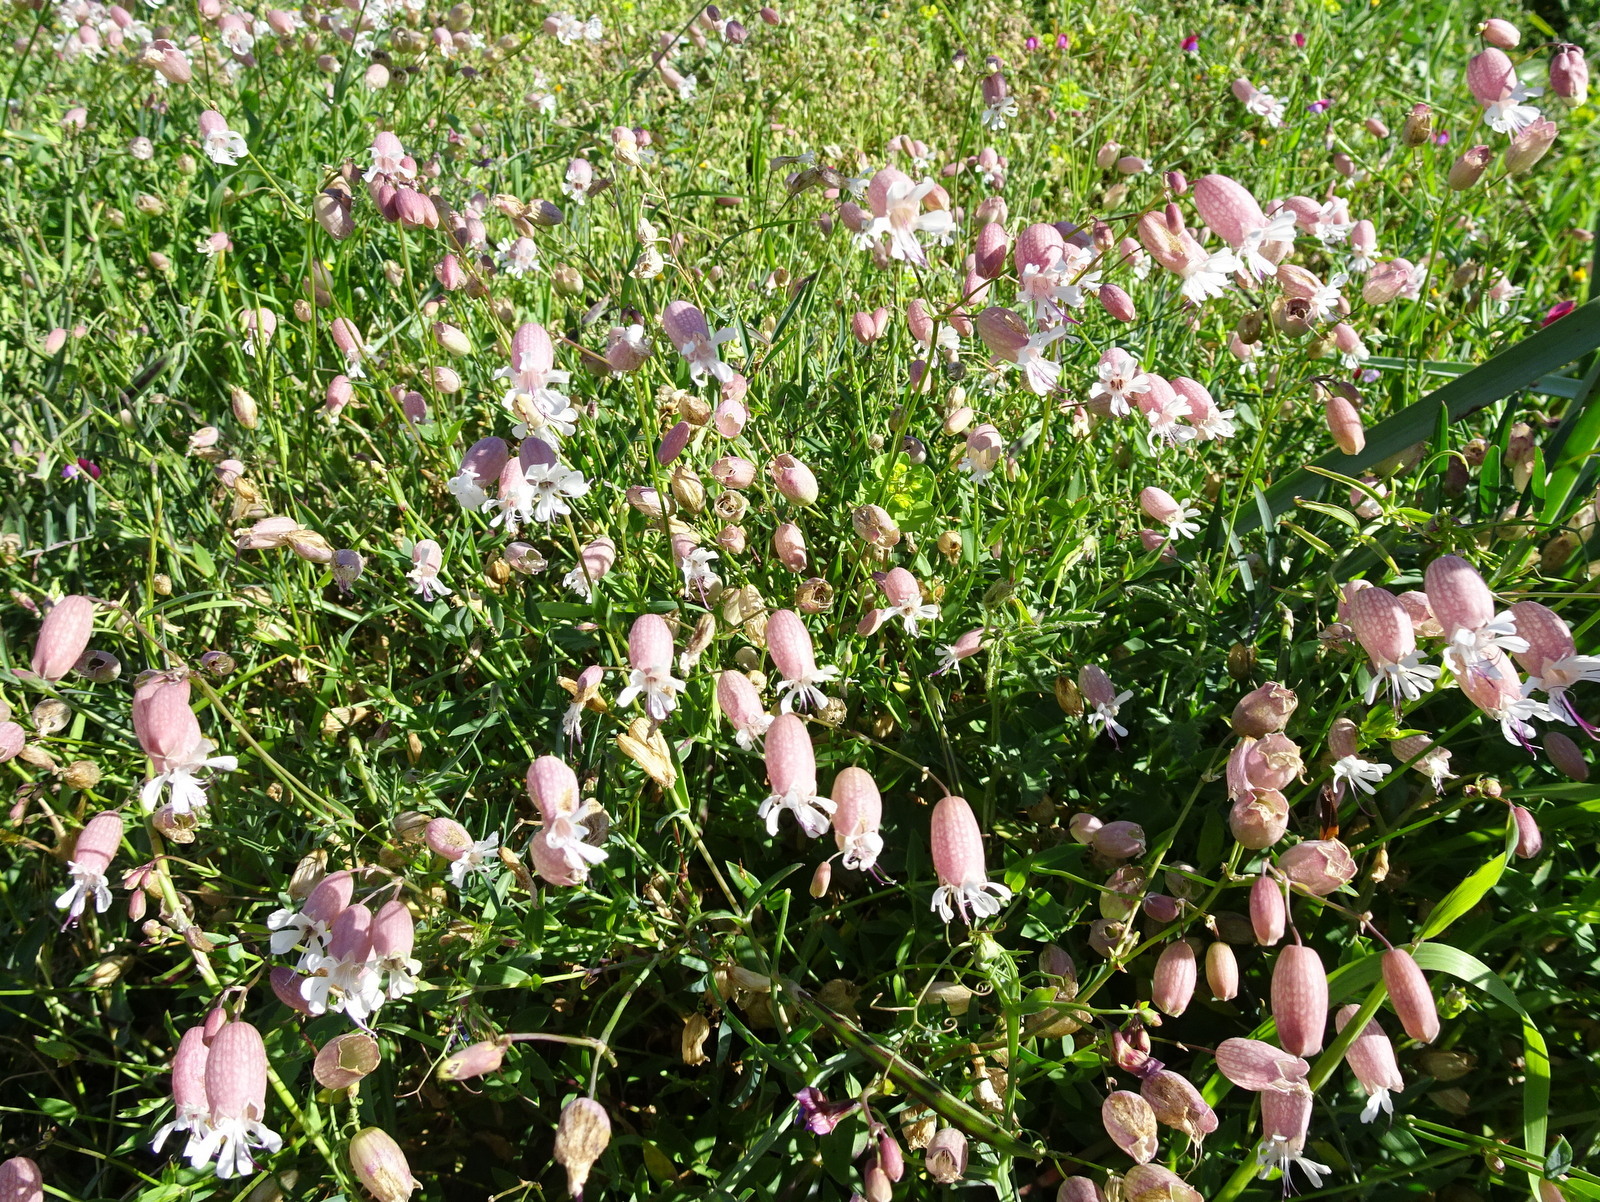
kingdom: Plantae
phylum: Tracheophyta
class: Magnoliopsida
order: Caryophyllales
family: Caryophyllaceae
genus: Silene
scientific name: Silene vulgaris
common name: Bladder campion
